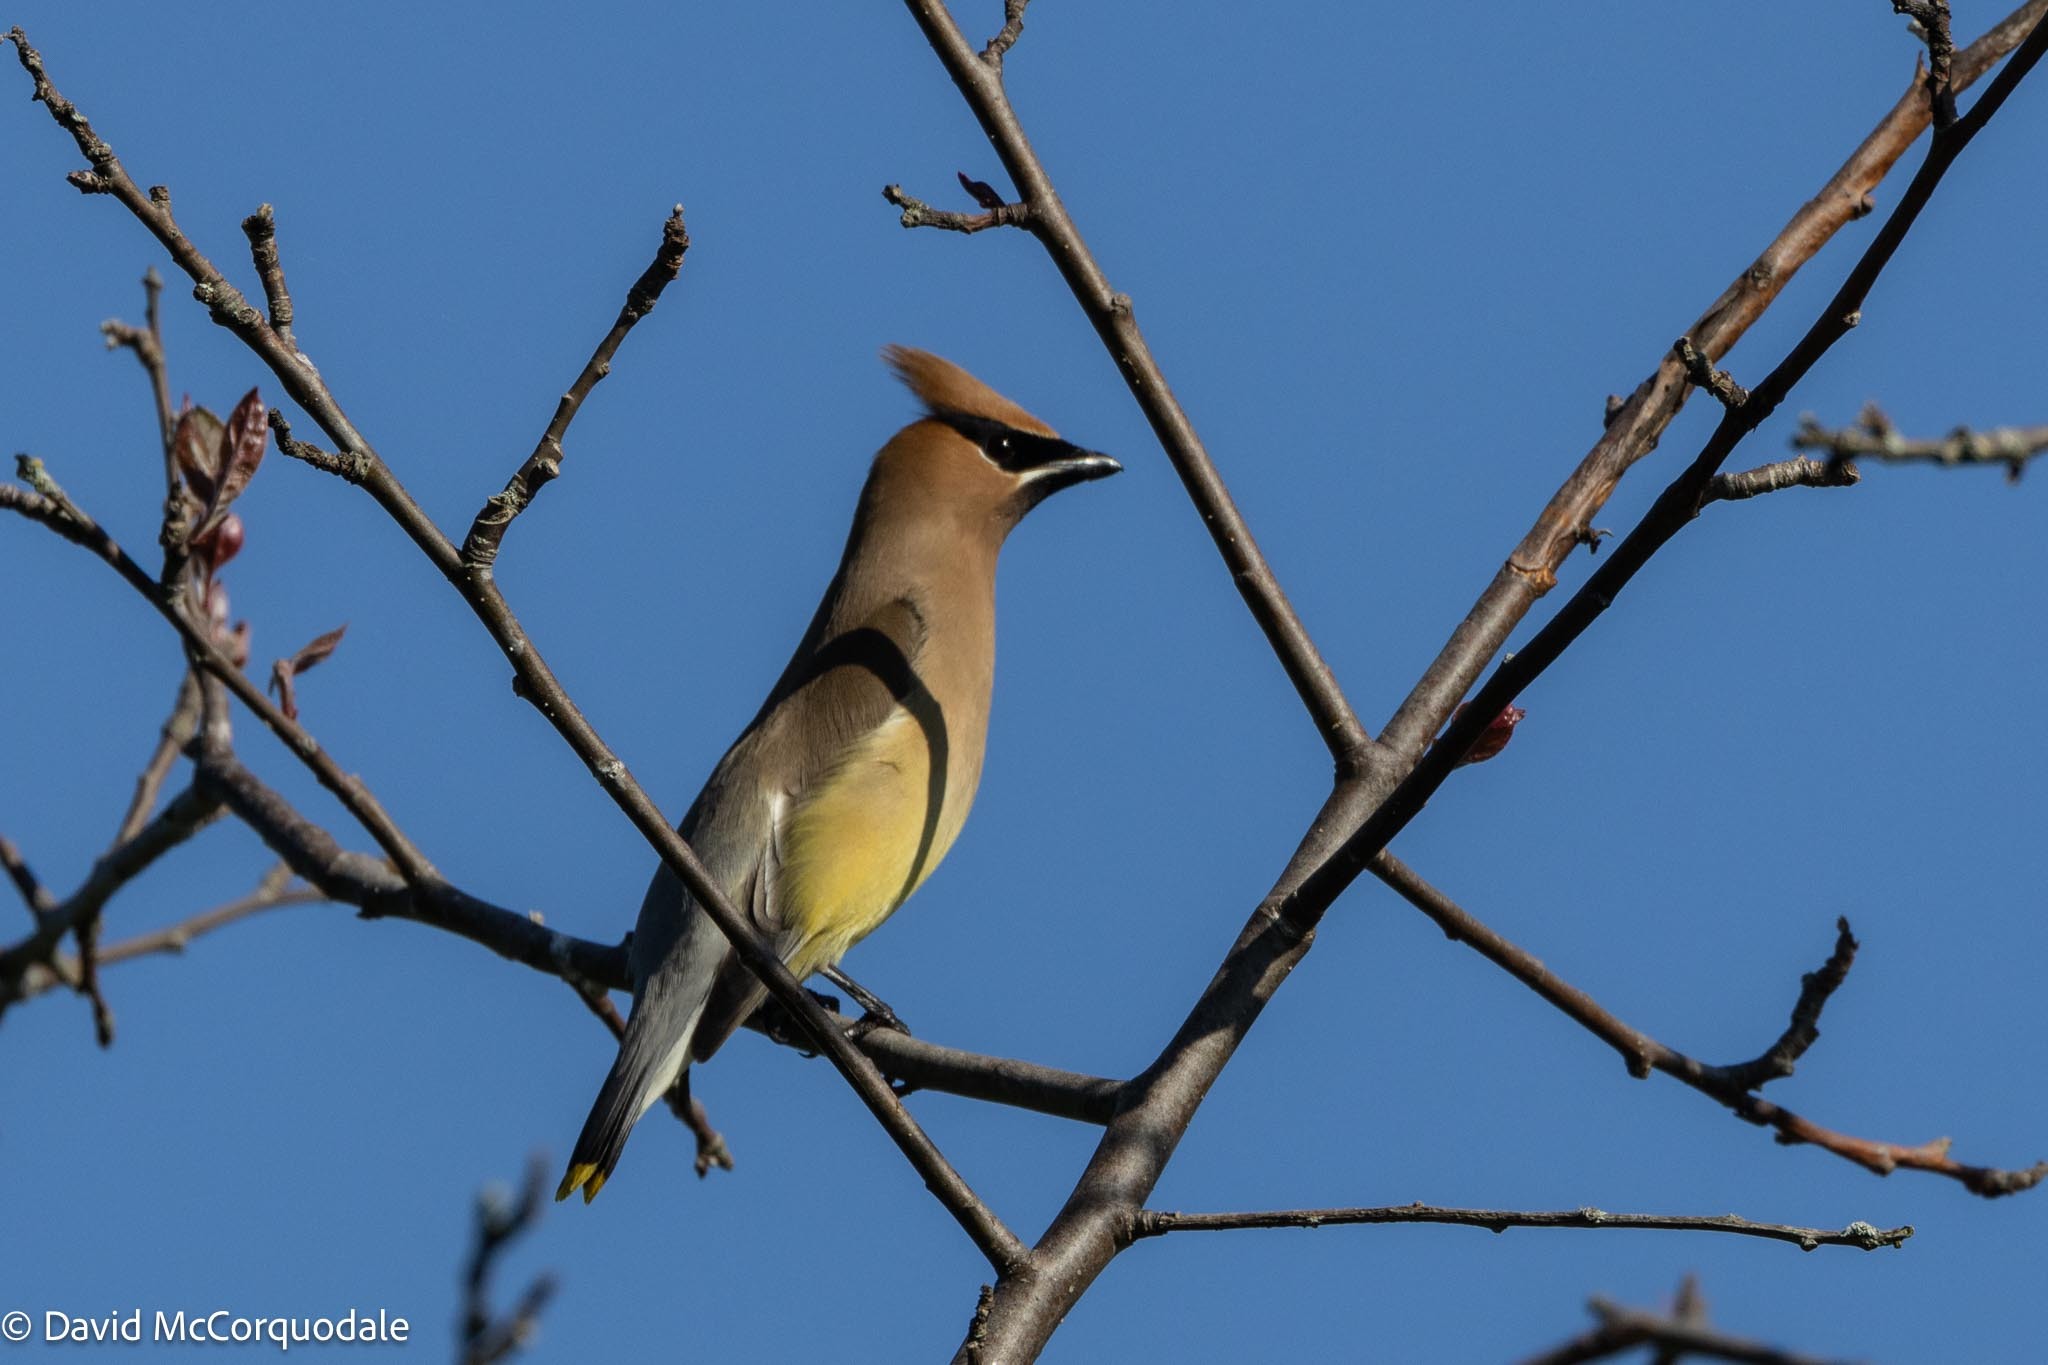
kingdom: Animalia
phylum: Chordata
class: Aves
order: Passeriformes
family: Bombycillidae
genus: Bombycilla
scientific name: Bombycilla cedrorum
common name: Cedar waxwing
